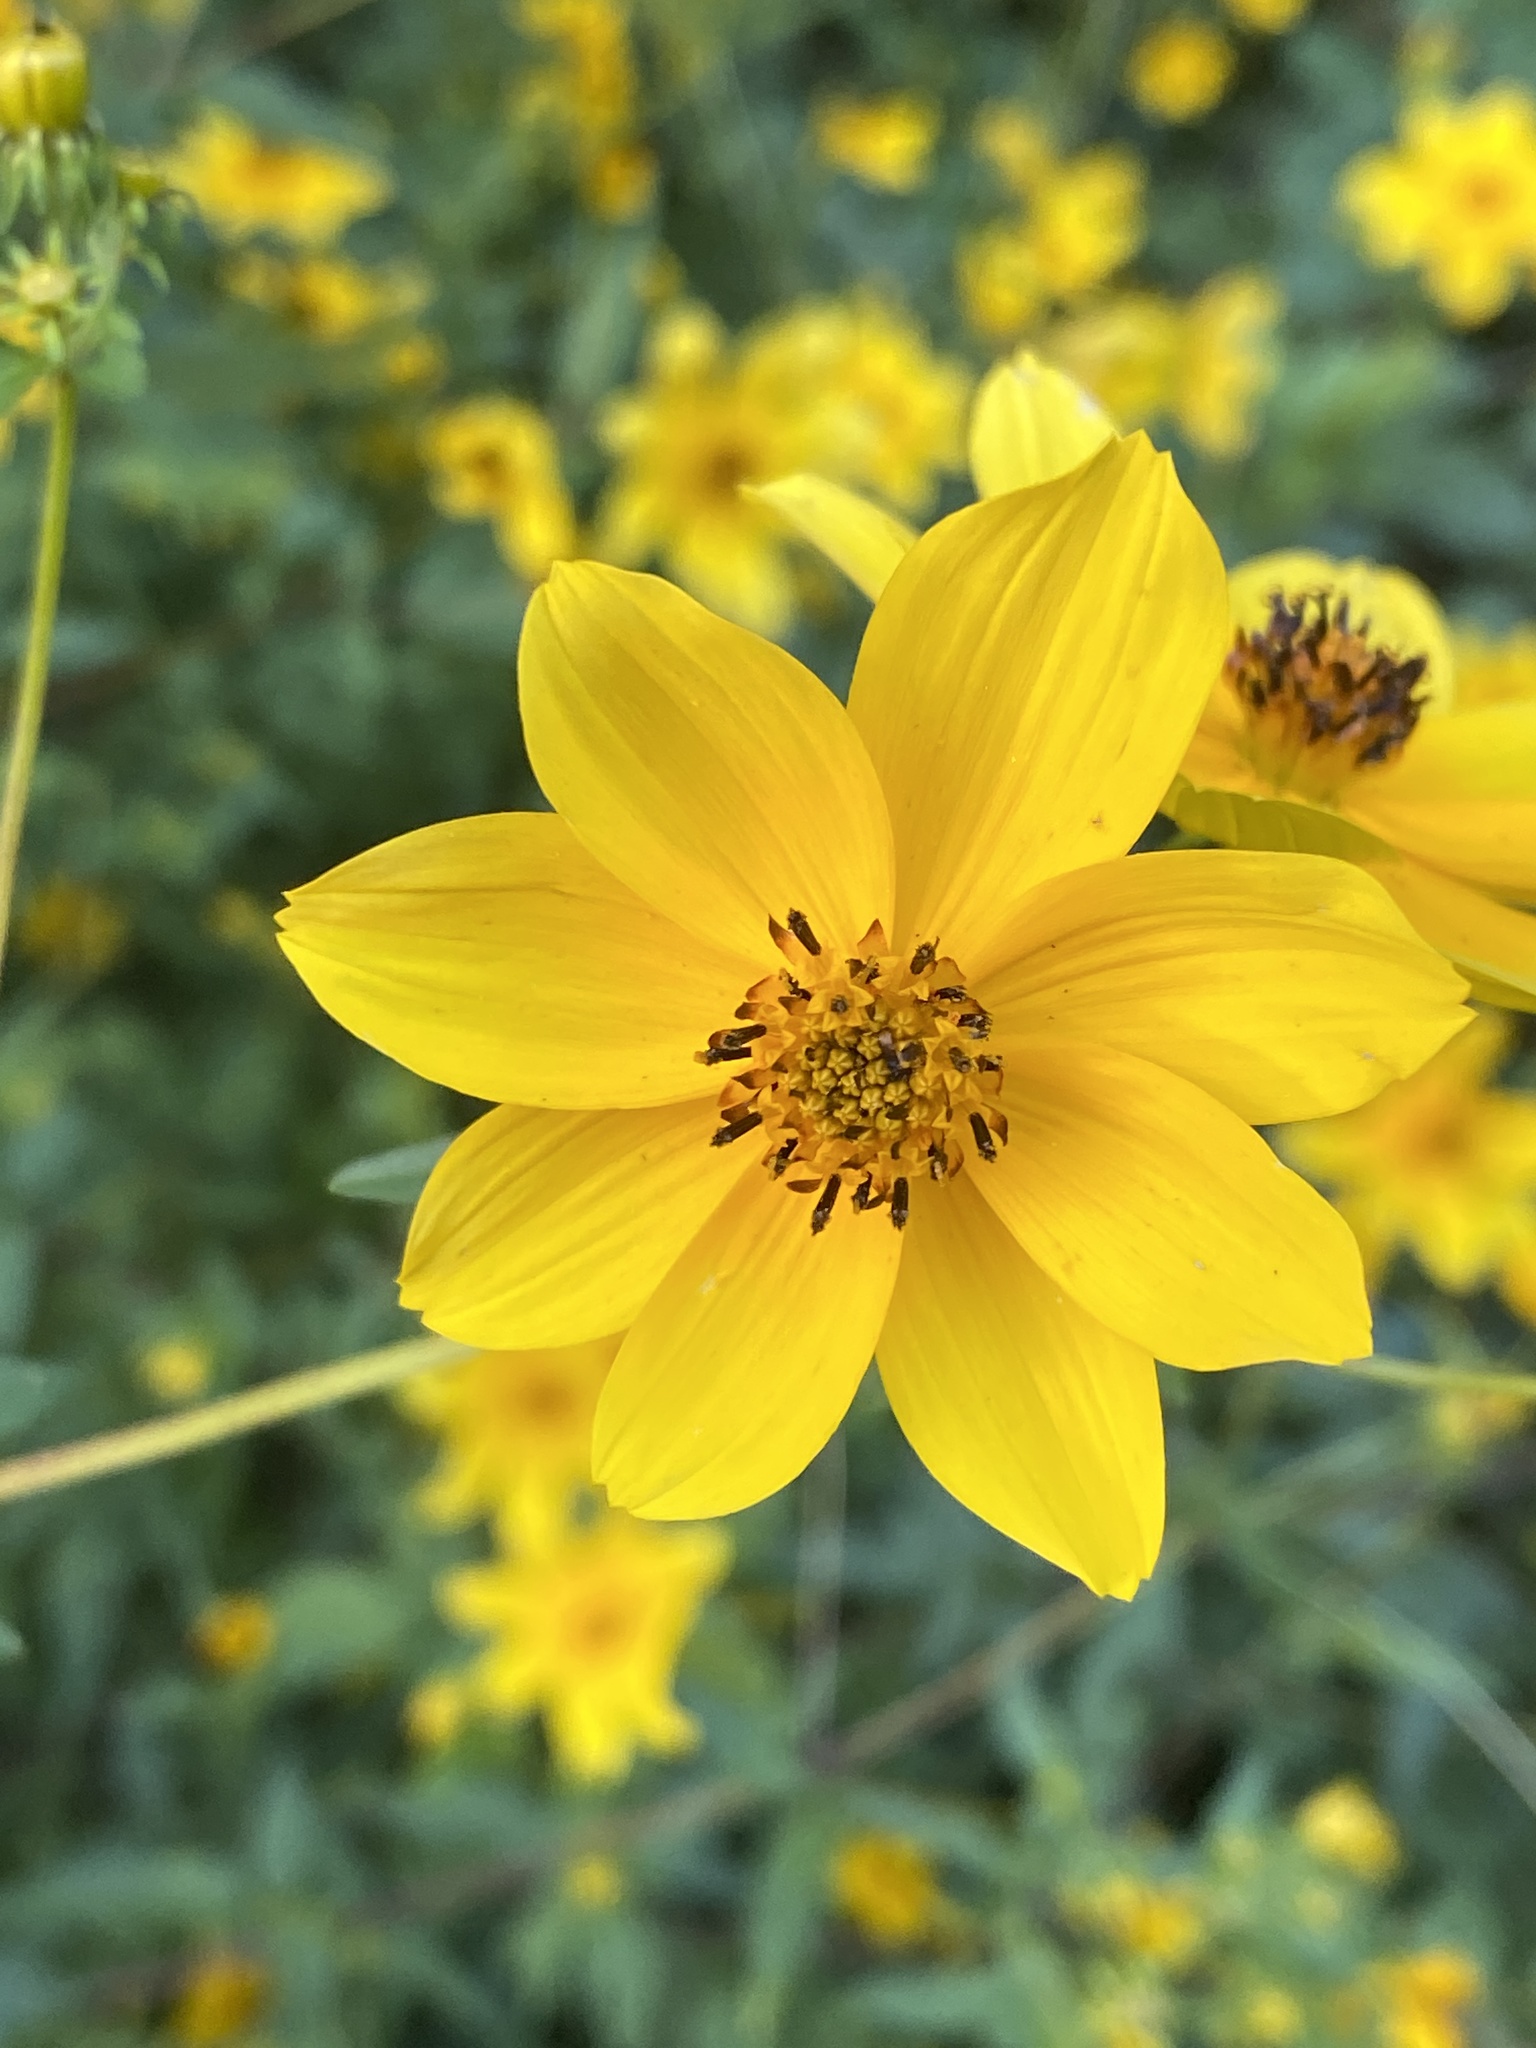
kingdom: Plantae
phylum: Tracheophyta
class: Magnoliopsida
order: Asterales
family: Asteraceae
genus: Bidens
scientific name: Bidens aristosa
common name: Western tickseed
